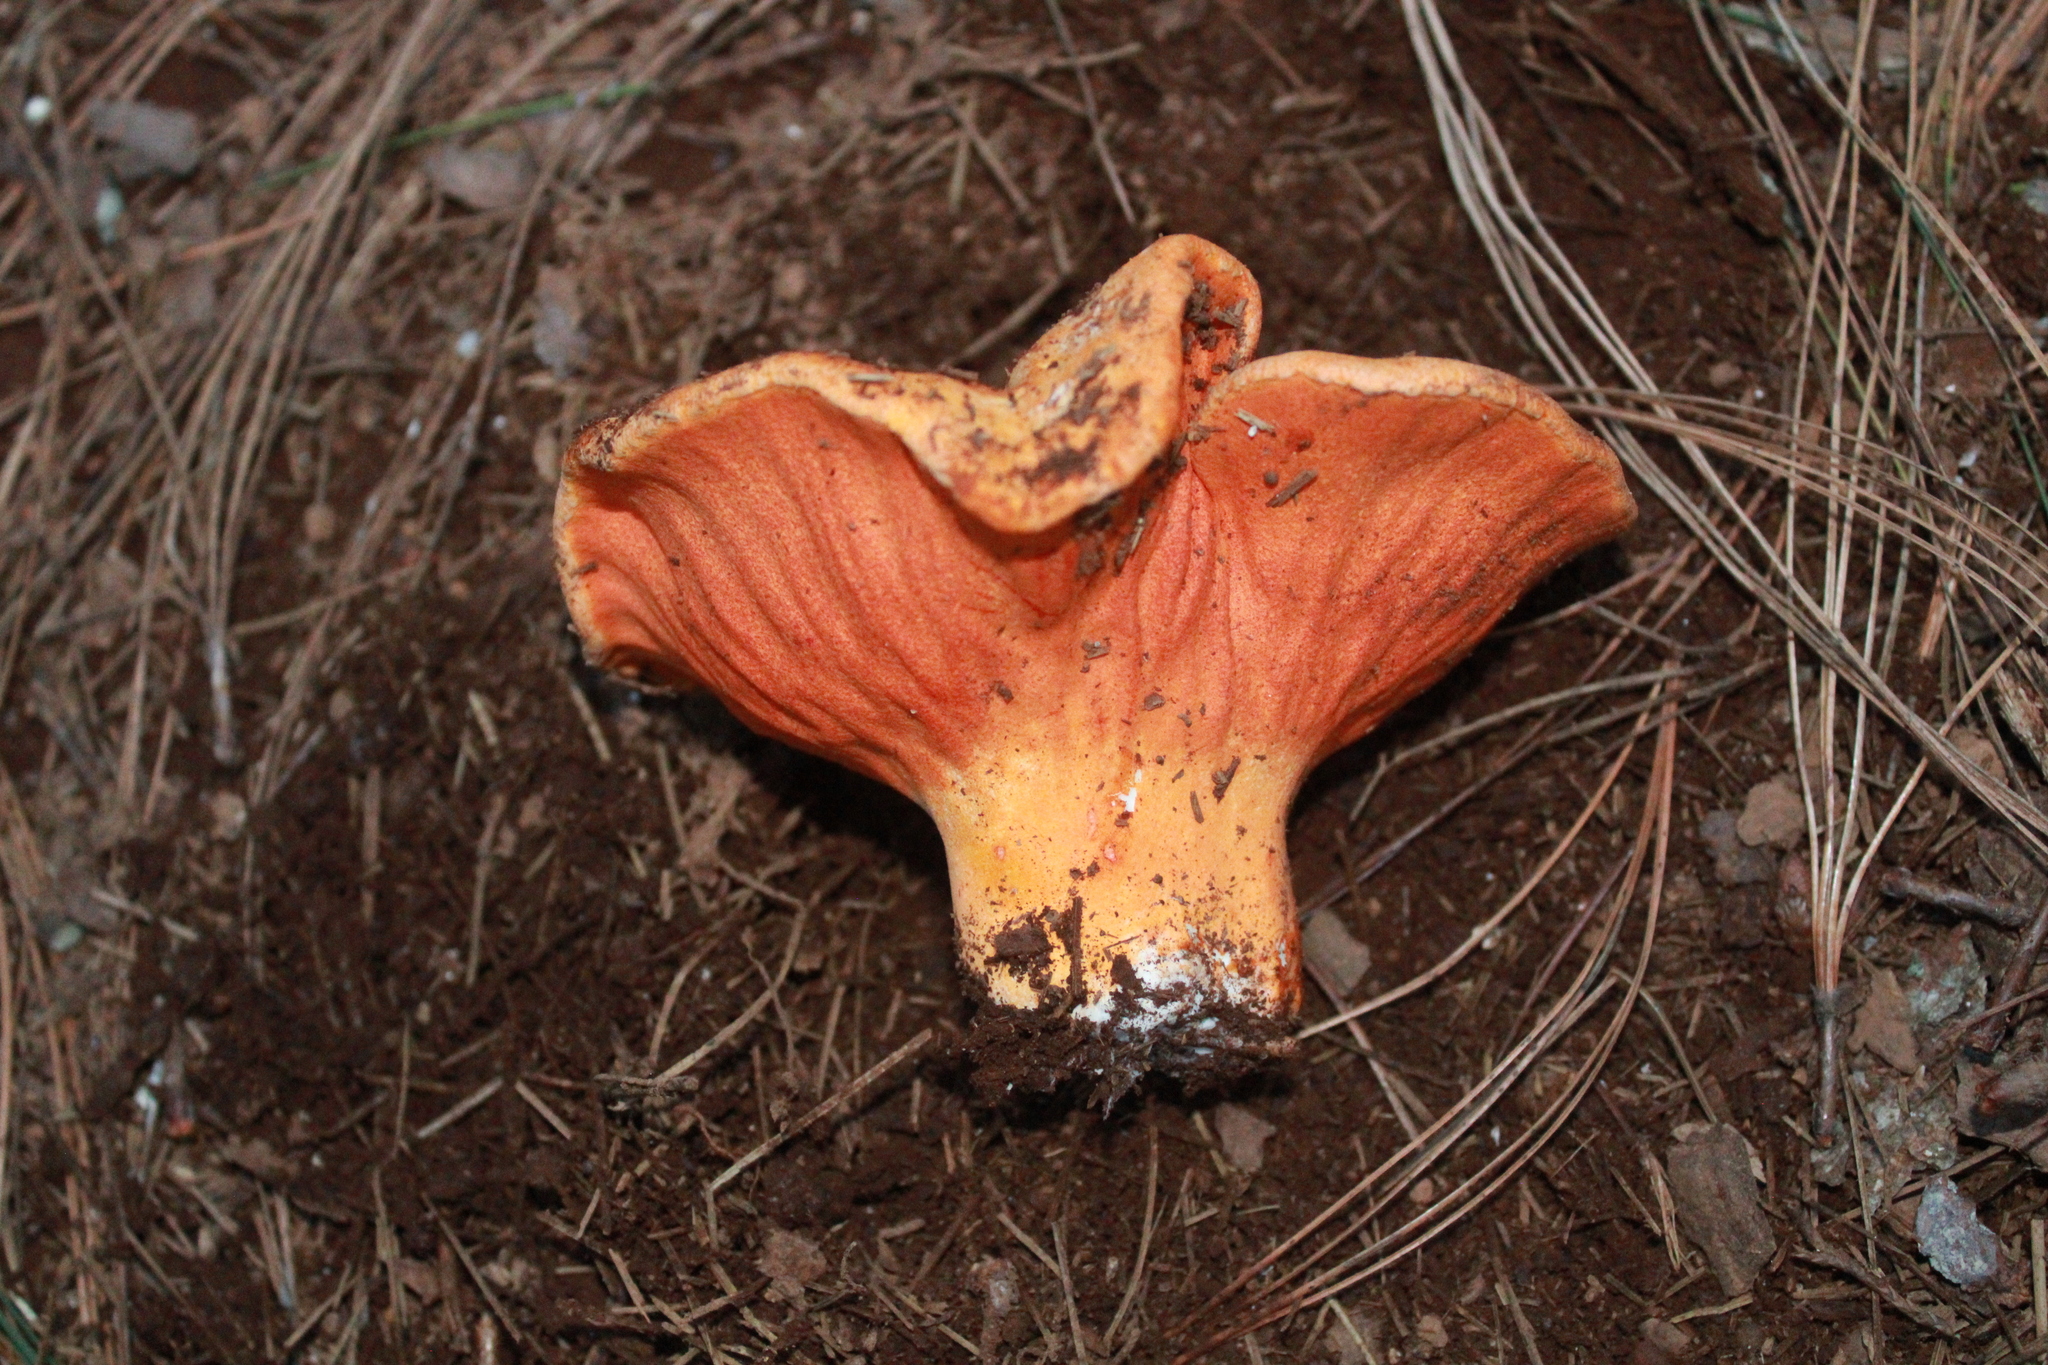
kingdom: Fungi
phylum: Ascomycota
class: Sordariomycetes
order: Hypocreales
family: Hypocreaceae
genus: Hypomyces
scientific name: Hypomyces lactifluorum
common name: Lobster mushroom
